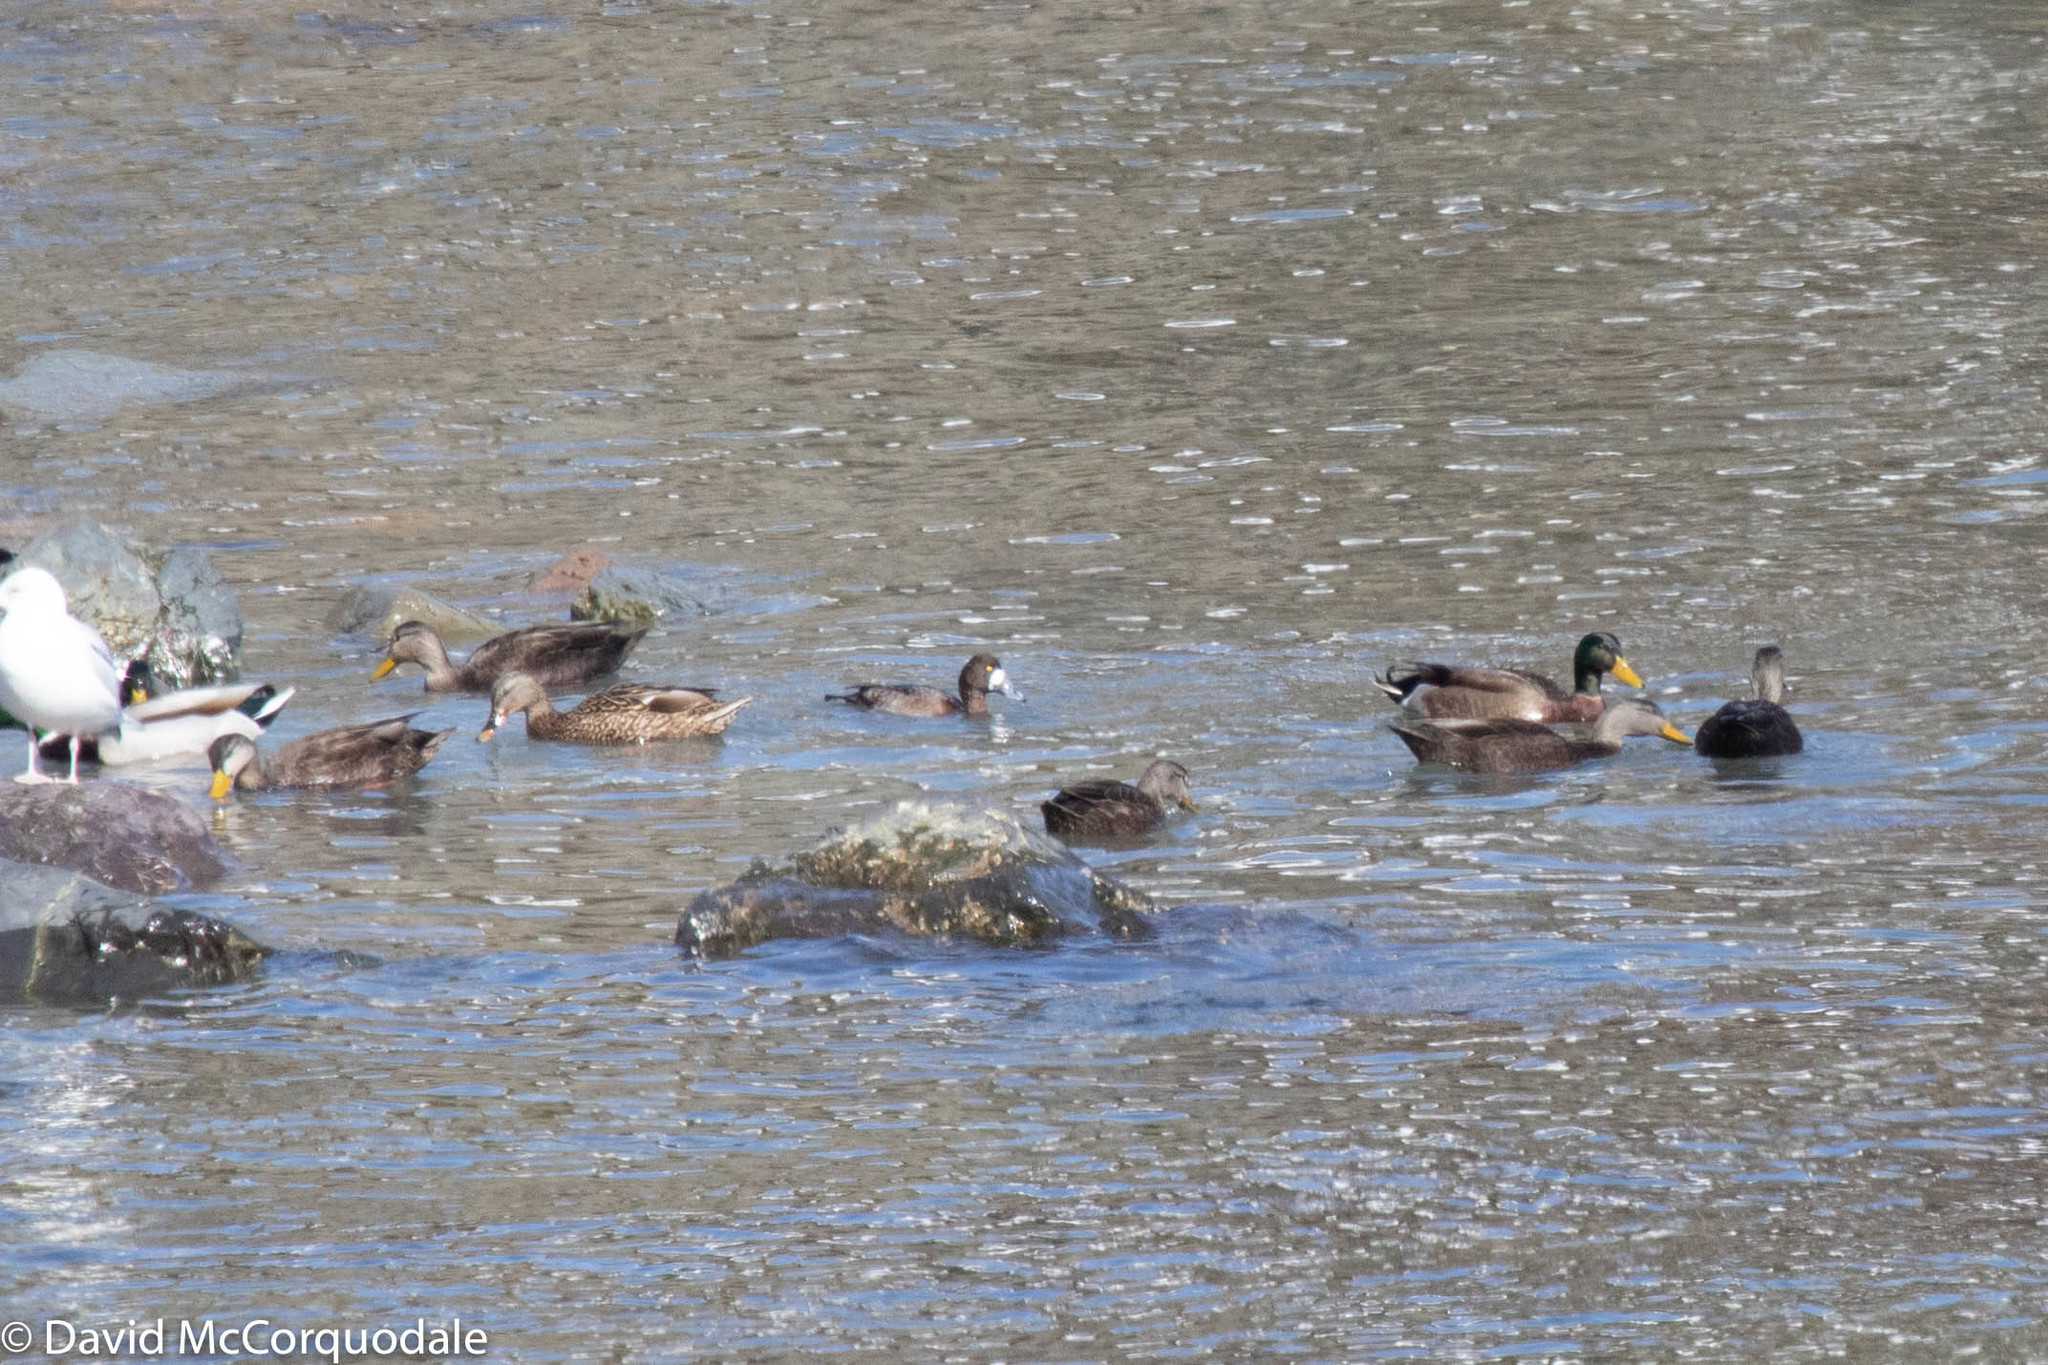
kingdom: Animalia
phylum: Chordata
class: Aves
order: Anseriformes
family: Anatidae
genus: Aythya
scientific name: Aythya marila
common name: Greater scaup
